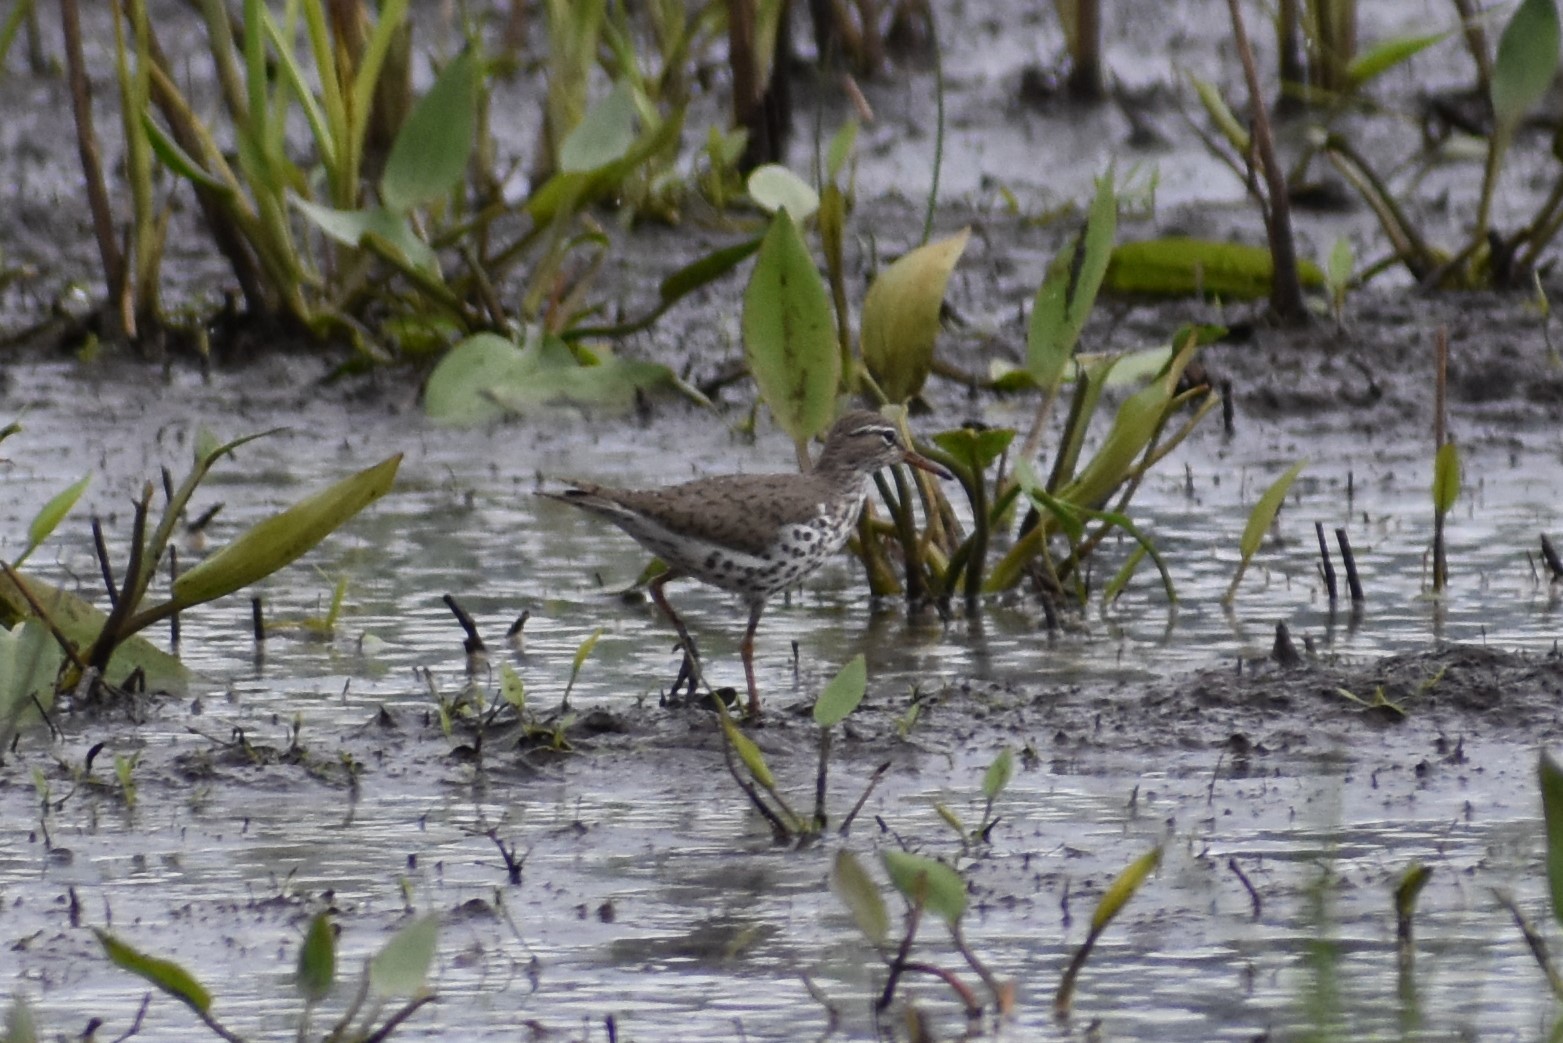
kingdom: Animalia
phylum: Chordata
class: Aves
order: Charadriiformes
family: Scolopacidae
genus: Actitis
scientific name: Actitis macularius
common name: Spotted sandpiper
